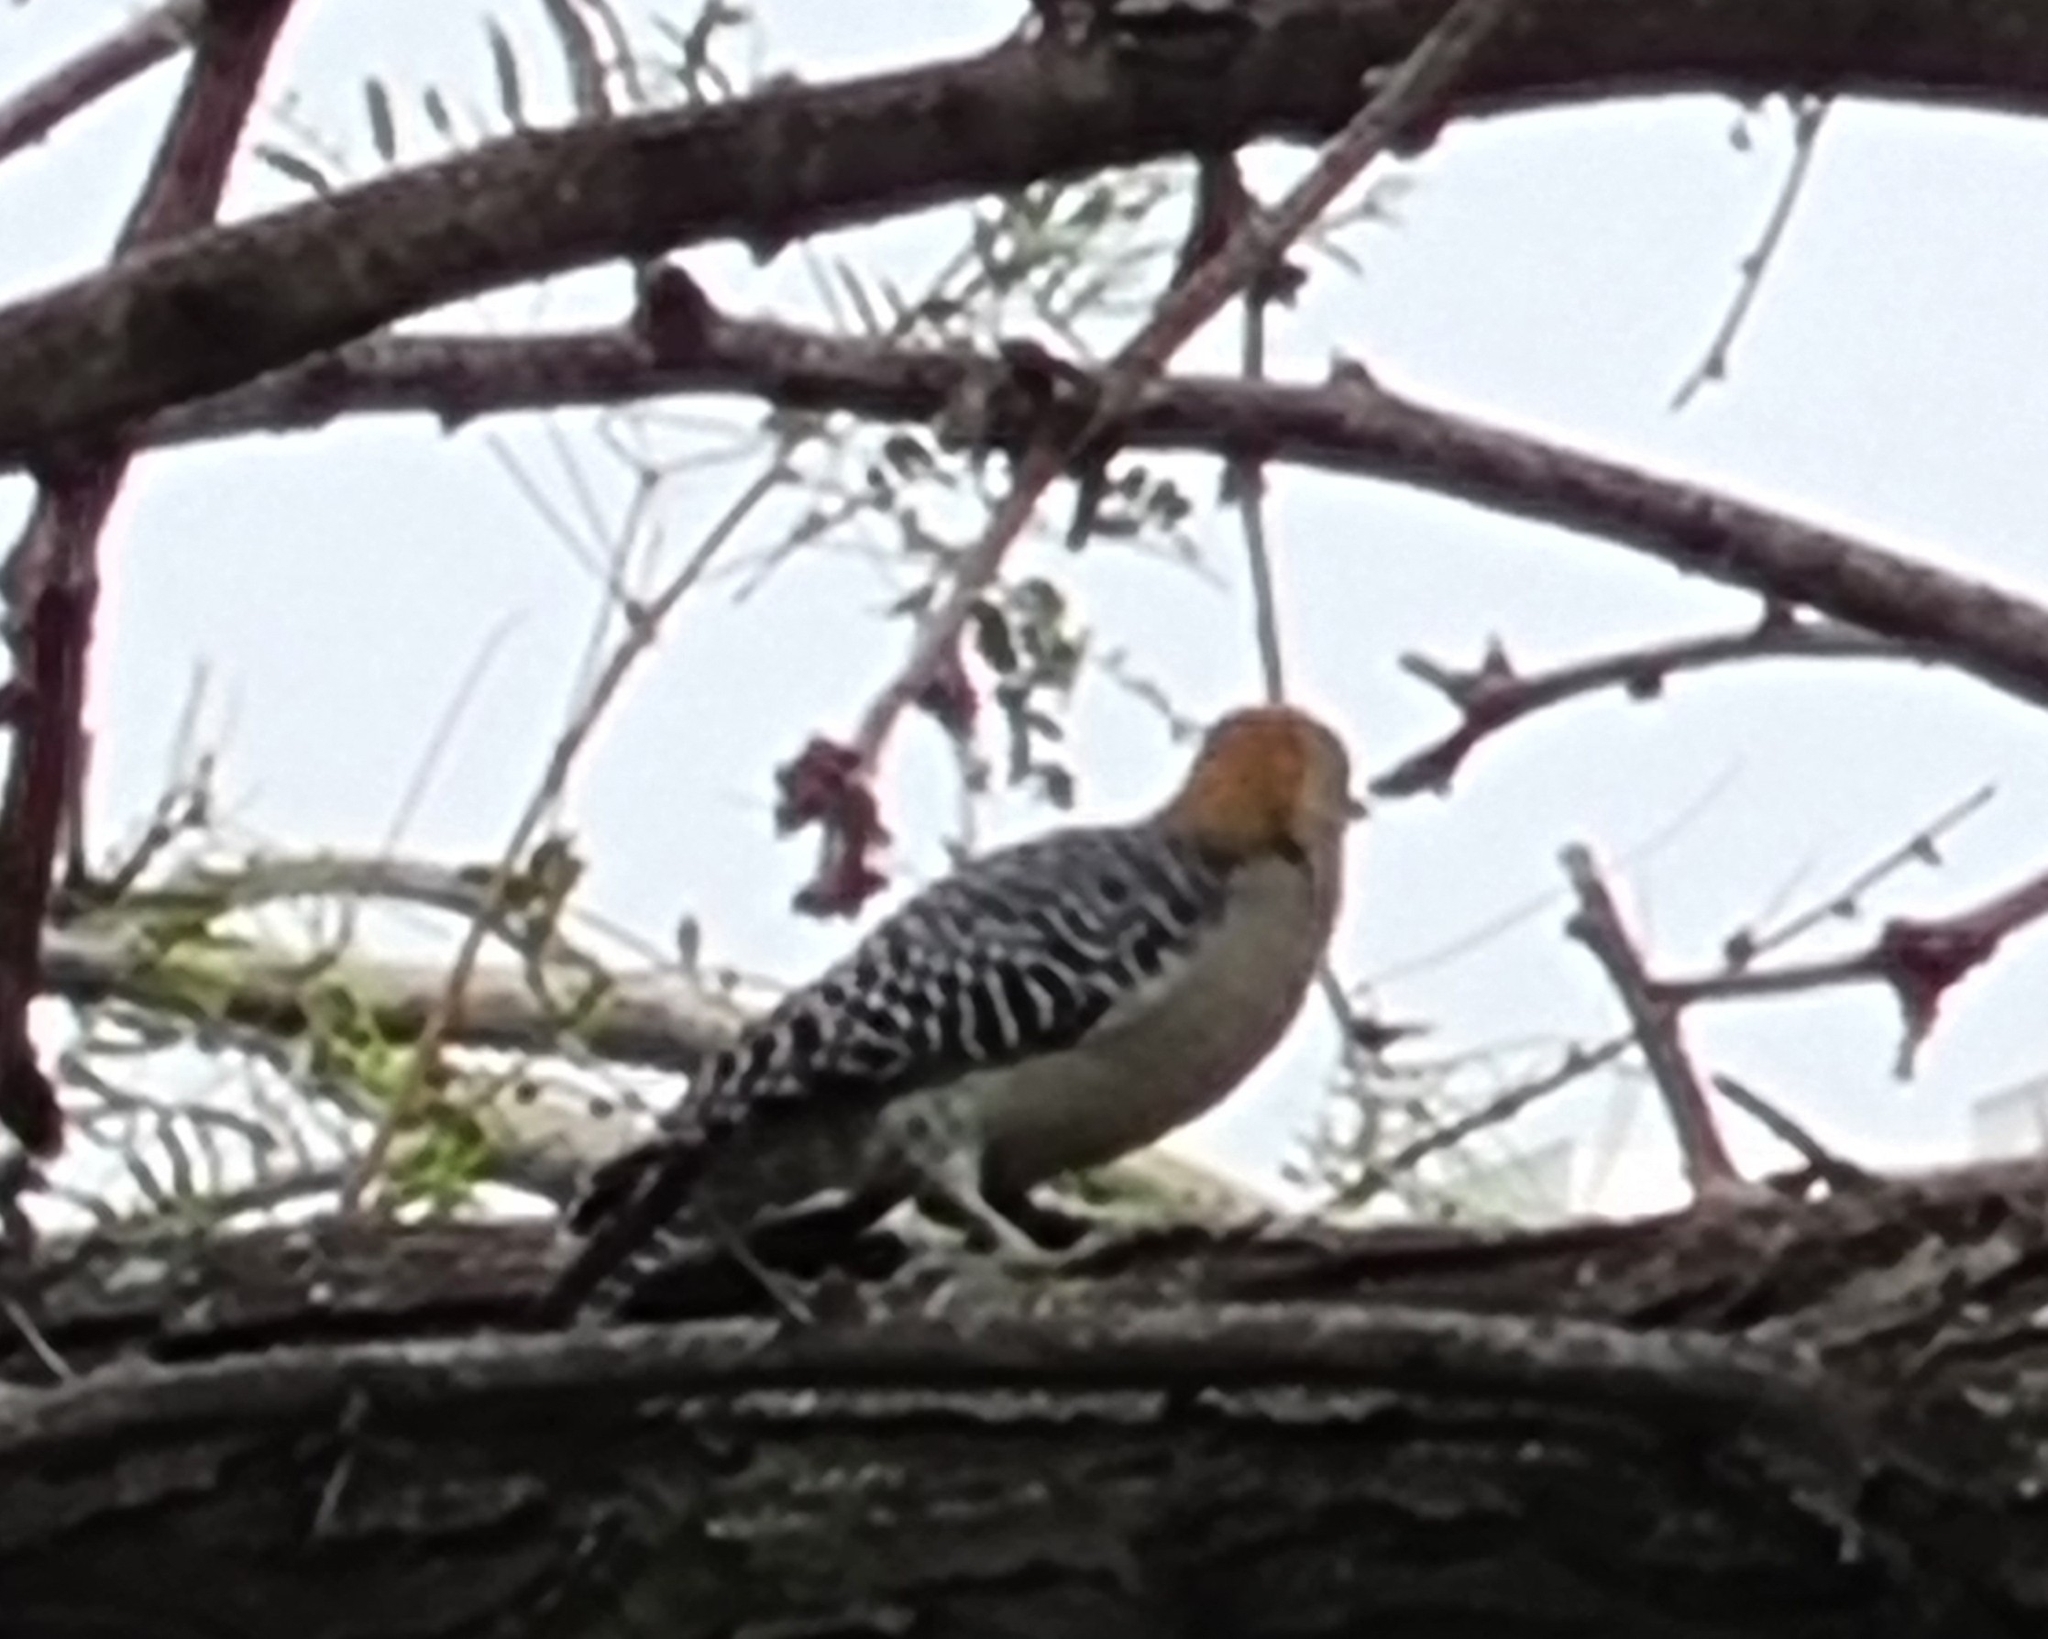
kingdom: Animalia
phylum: Chordata
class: Aves
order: Piciformes
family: Picidae
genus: Melanerpes
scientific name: Melanerpes aurifrons
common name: Golden-fronted woodpecker
